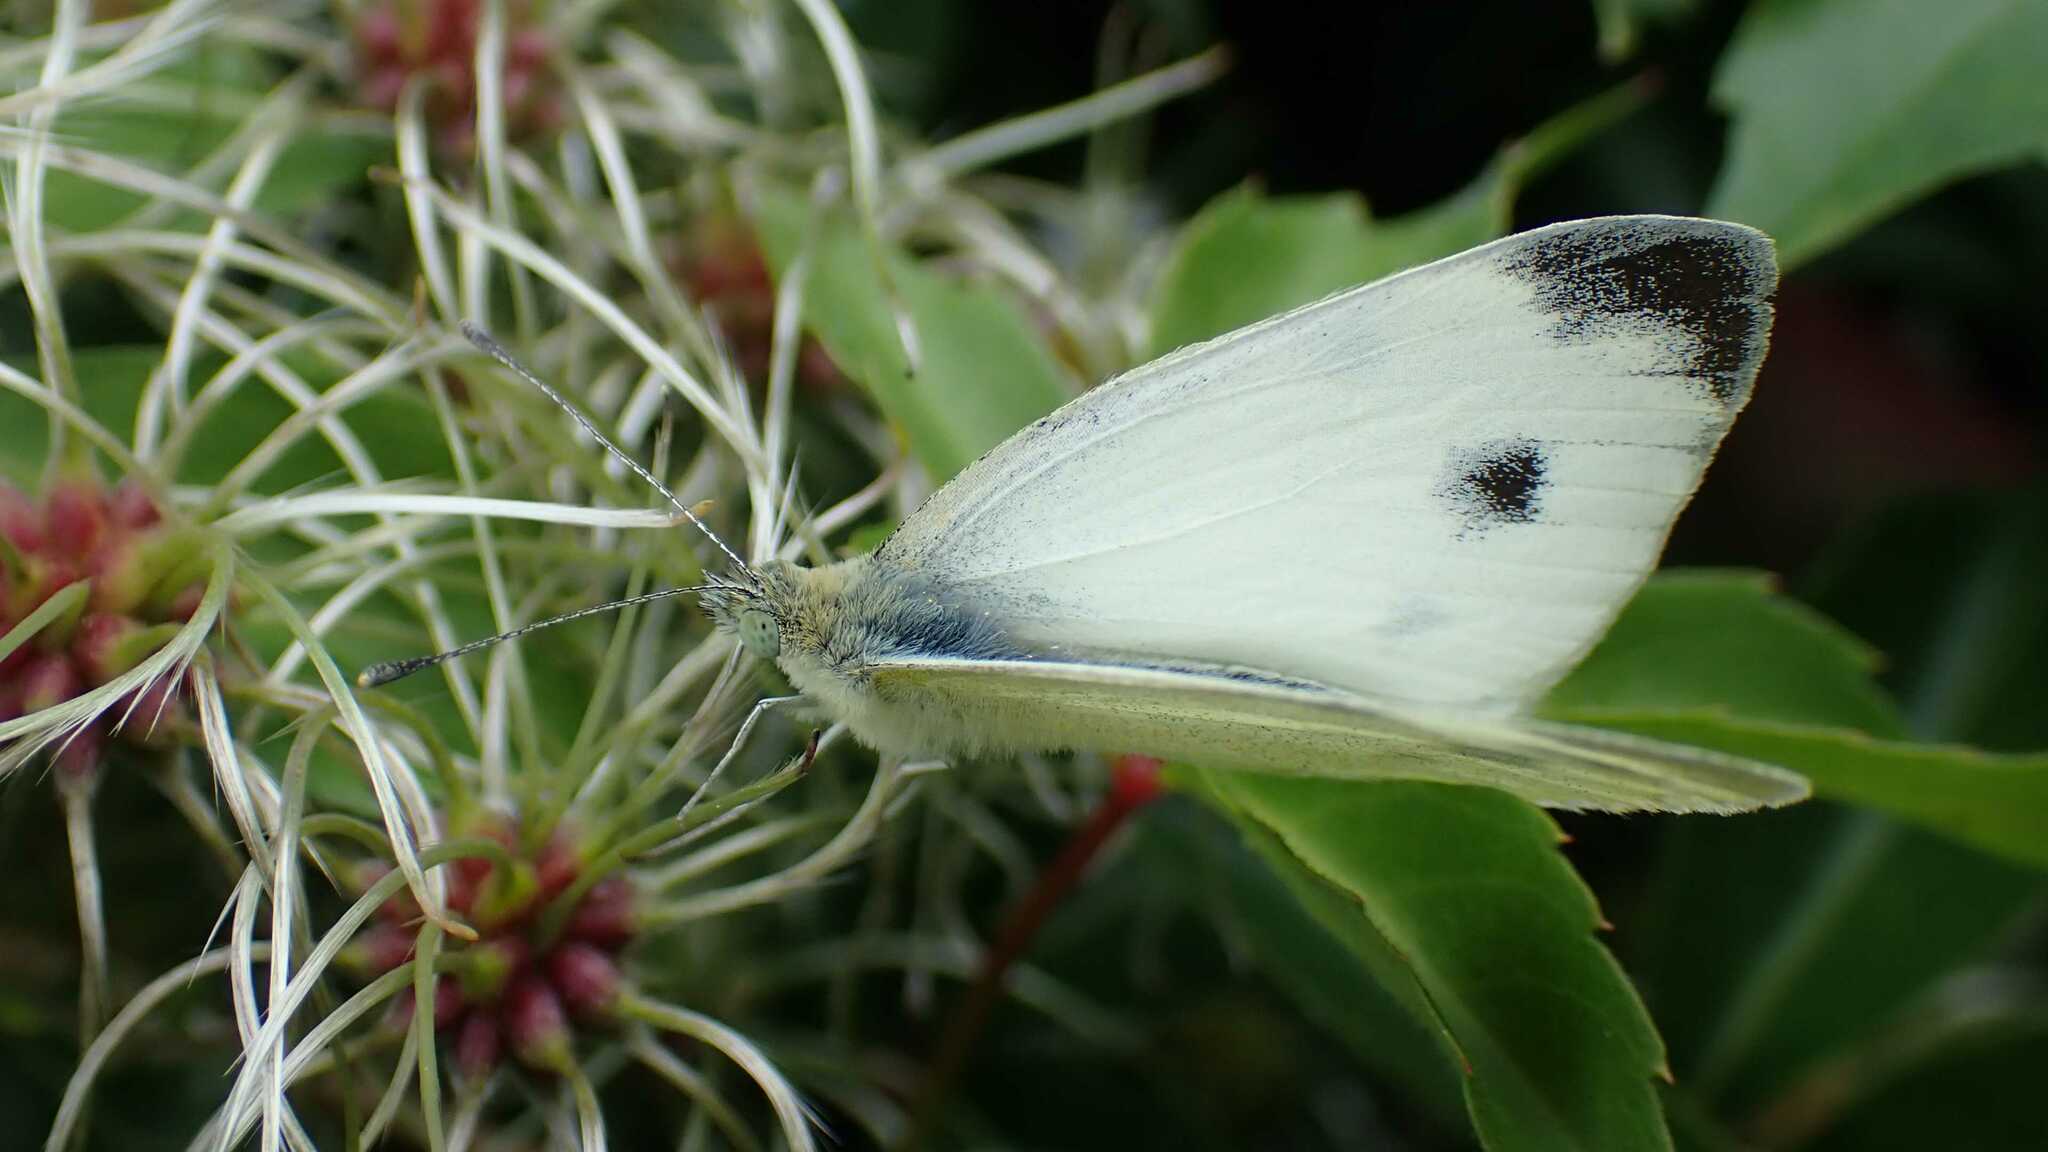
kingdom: Animalia
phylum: Arthropoda
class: Insecta
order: Lepidoptera
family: Pieridae
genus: Pieris
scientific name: Pieris mannii
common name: Southern small white
